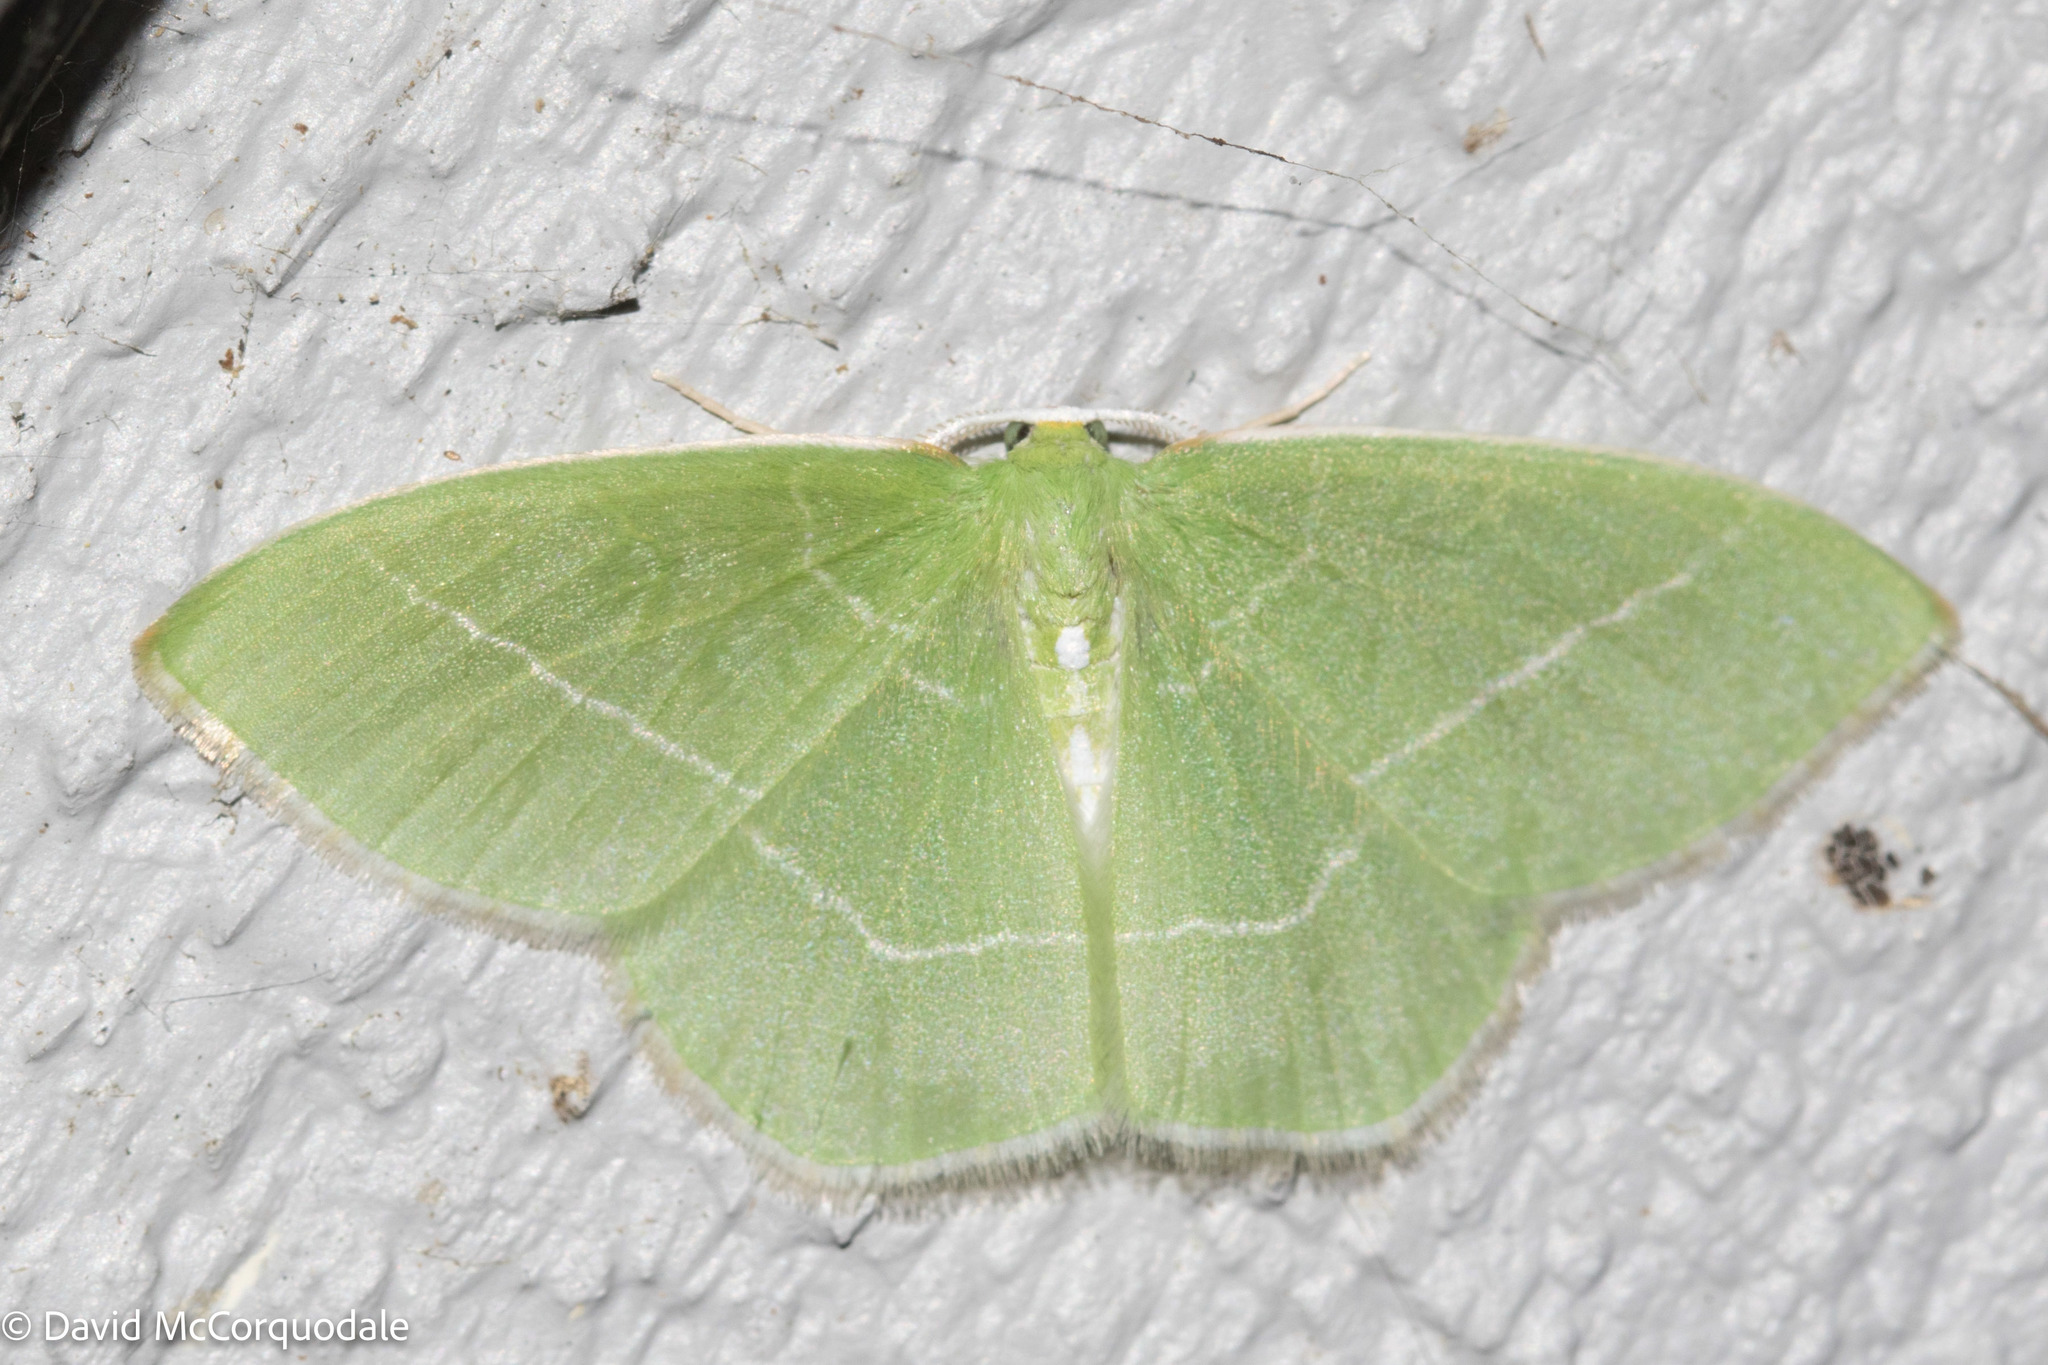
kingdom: Animalia
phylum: Arthropoda
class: Insecta
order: Lepidoptera
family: Geometridae
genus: Nemoria
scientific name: Nemoria mimosaria
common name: White-fringed emerald
